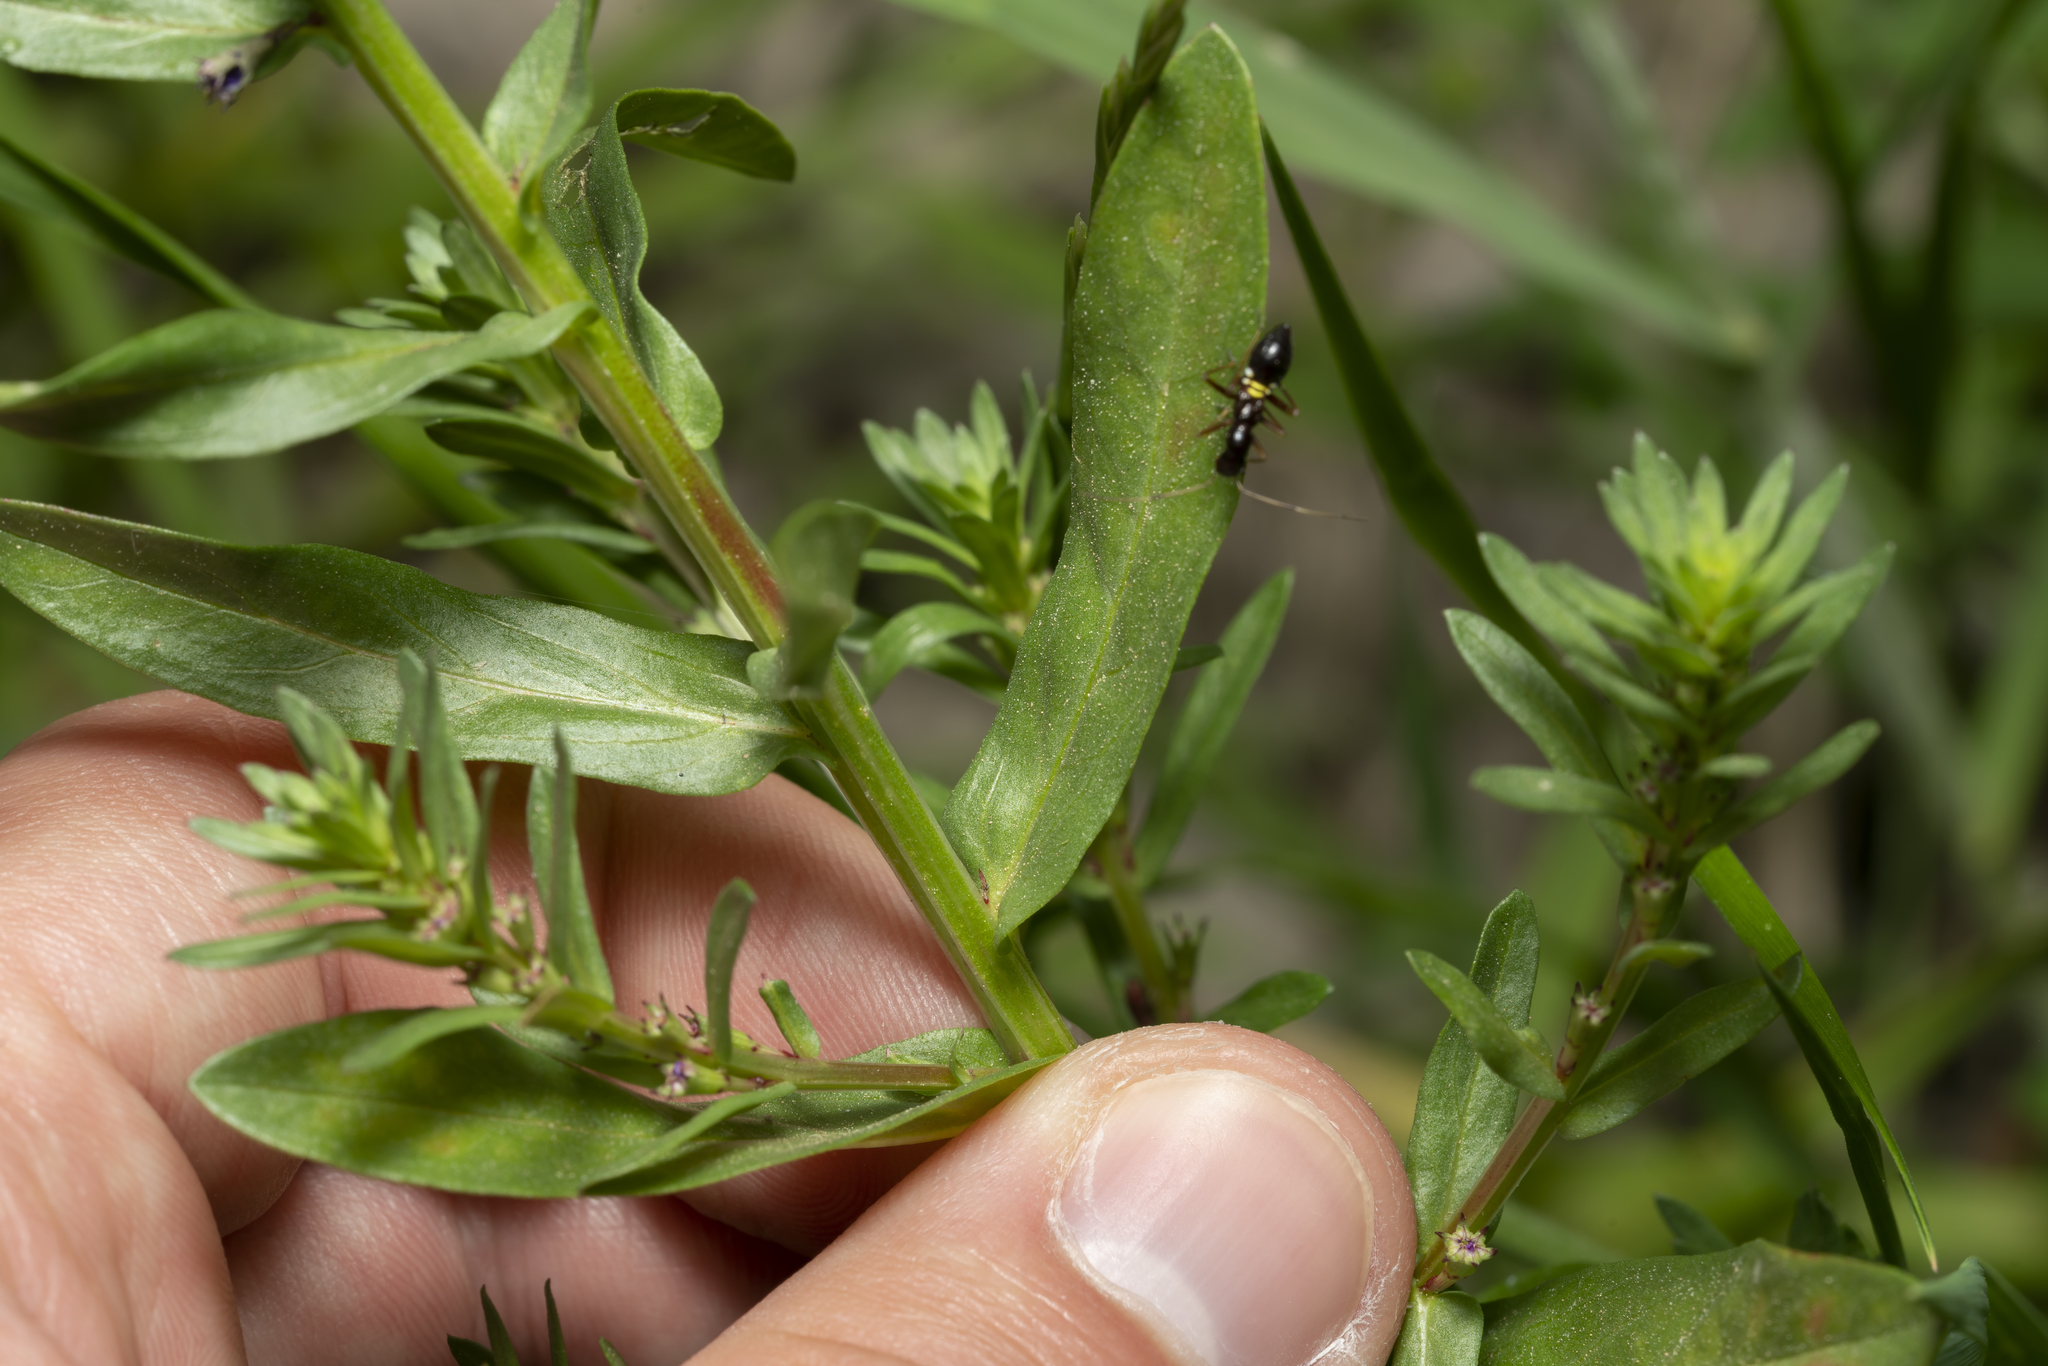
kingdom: Plantae
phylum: Tracheophyta
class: Magnoliopsida
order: Myrtales
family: Lythraceae
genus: Lythrum
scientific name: Lythrum junceum
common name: False grass-poly
